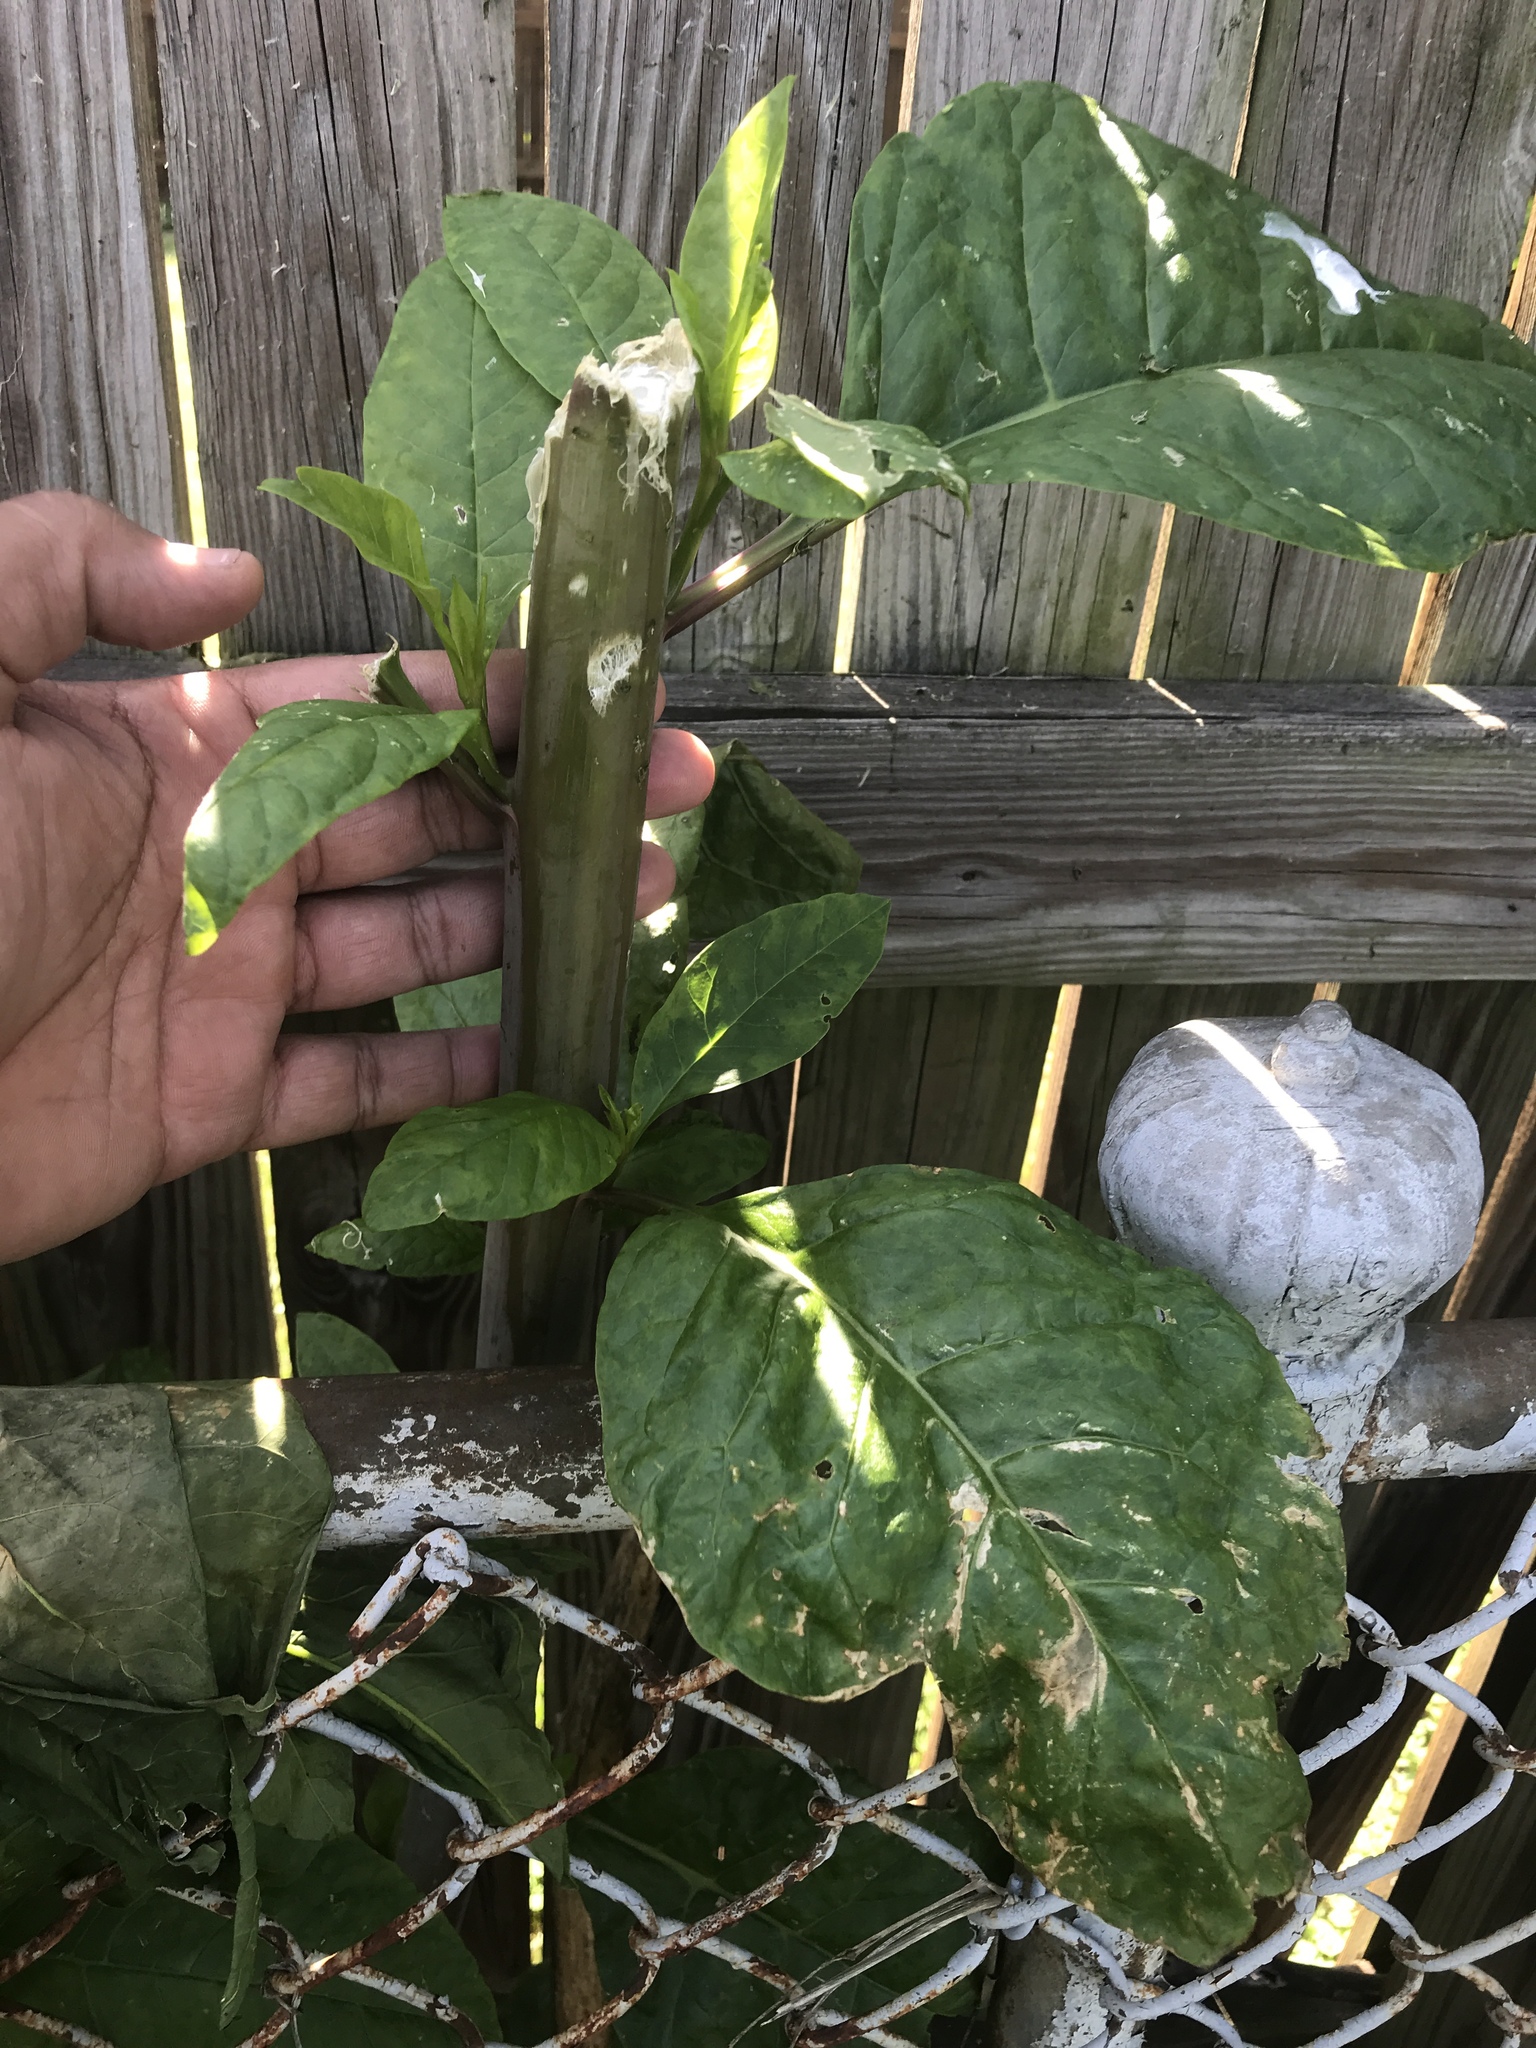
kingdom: Plantae
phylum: Tracheophyta
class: Magnoliopsida
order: Caryophyllales
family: Phytolaccaceae
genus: Phytolacca
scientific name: Phytolacca americana
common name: American pokeweed
